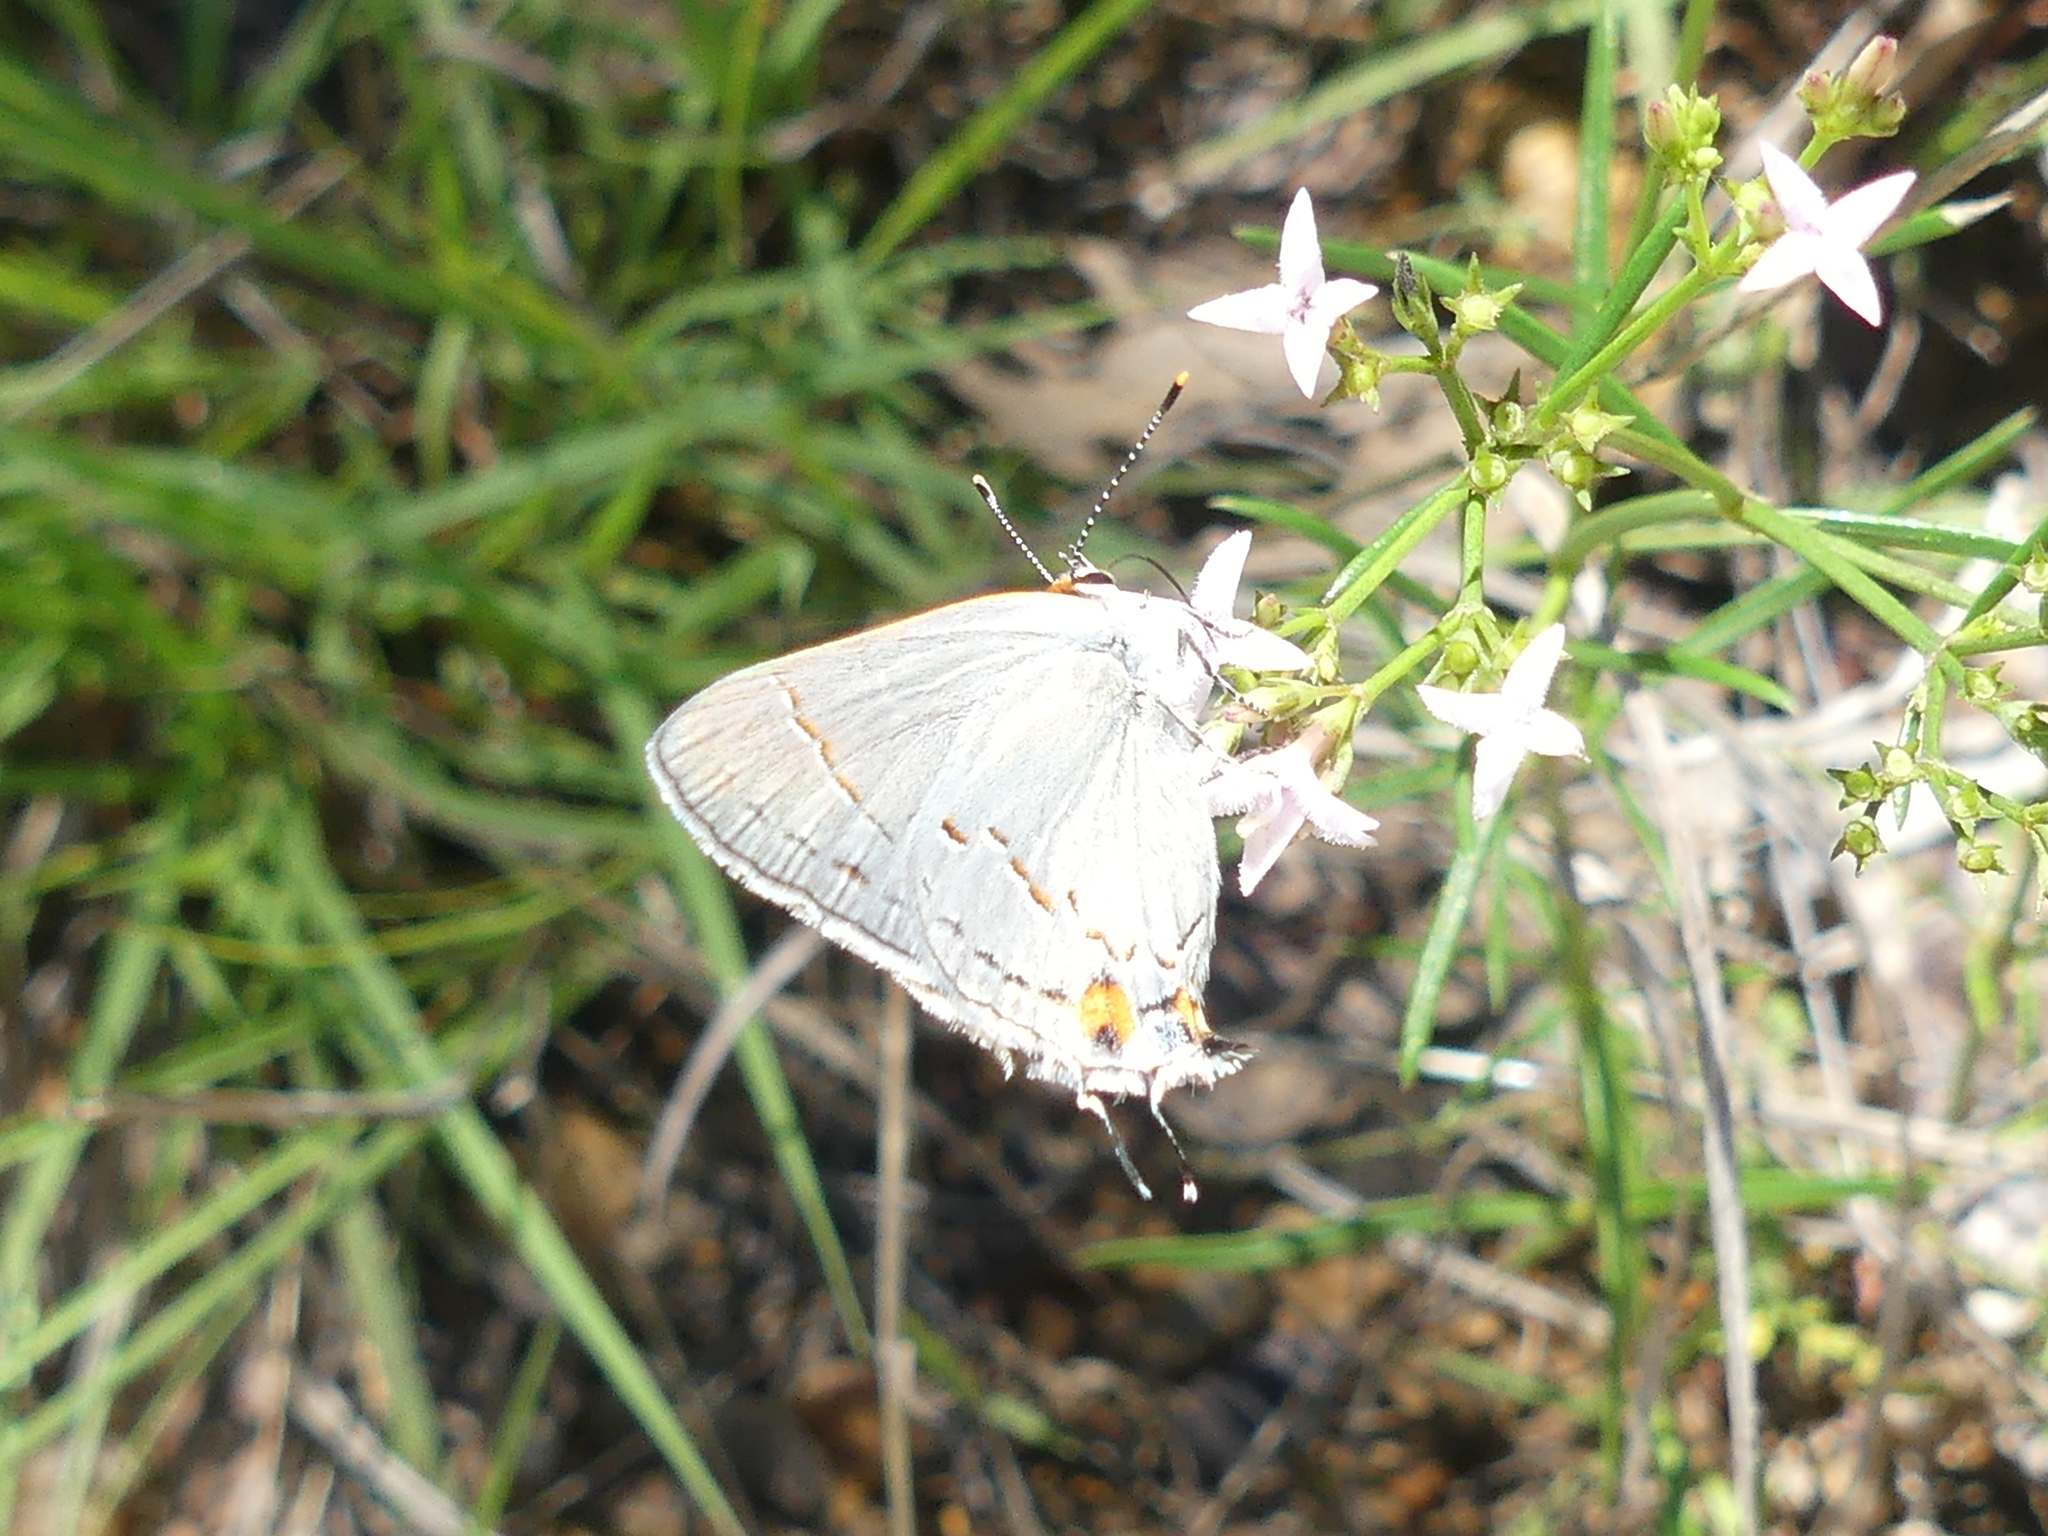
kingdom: Animalia
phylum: Arthropoda
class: Insecta
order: Lepidoptera
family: Lycaenidae
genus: Strymon
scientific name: Strymon melinus
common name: Gray hairstreak
